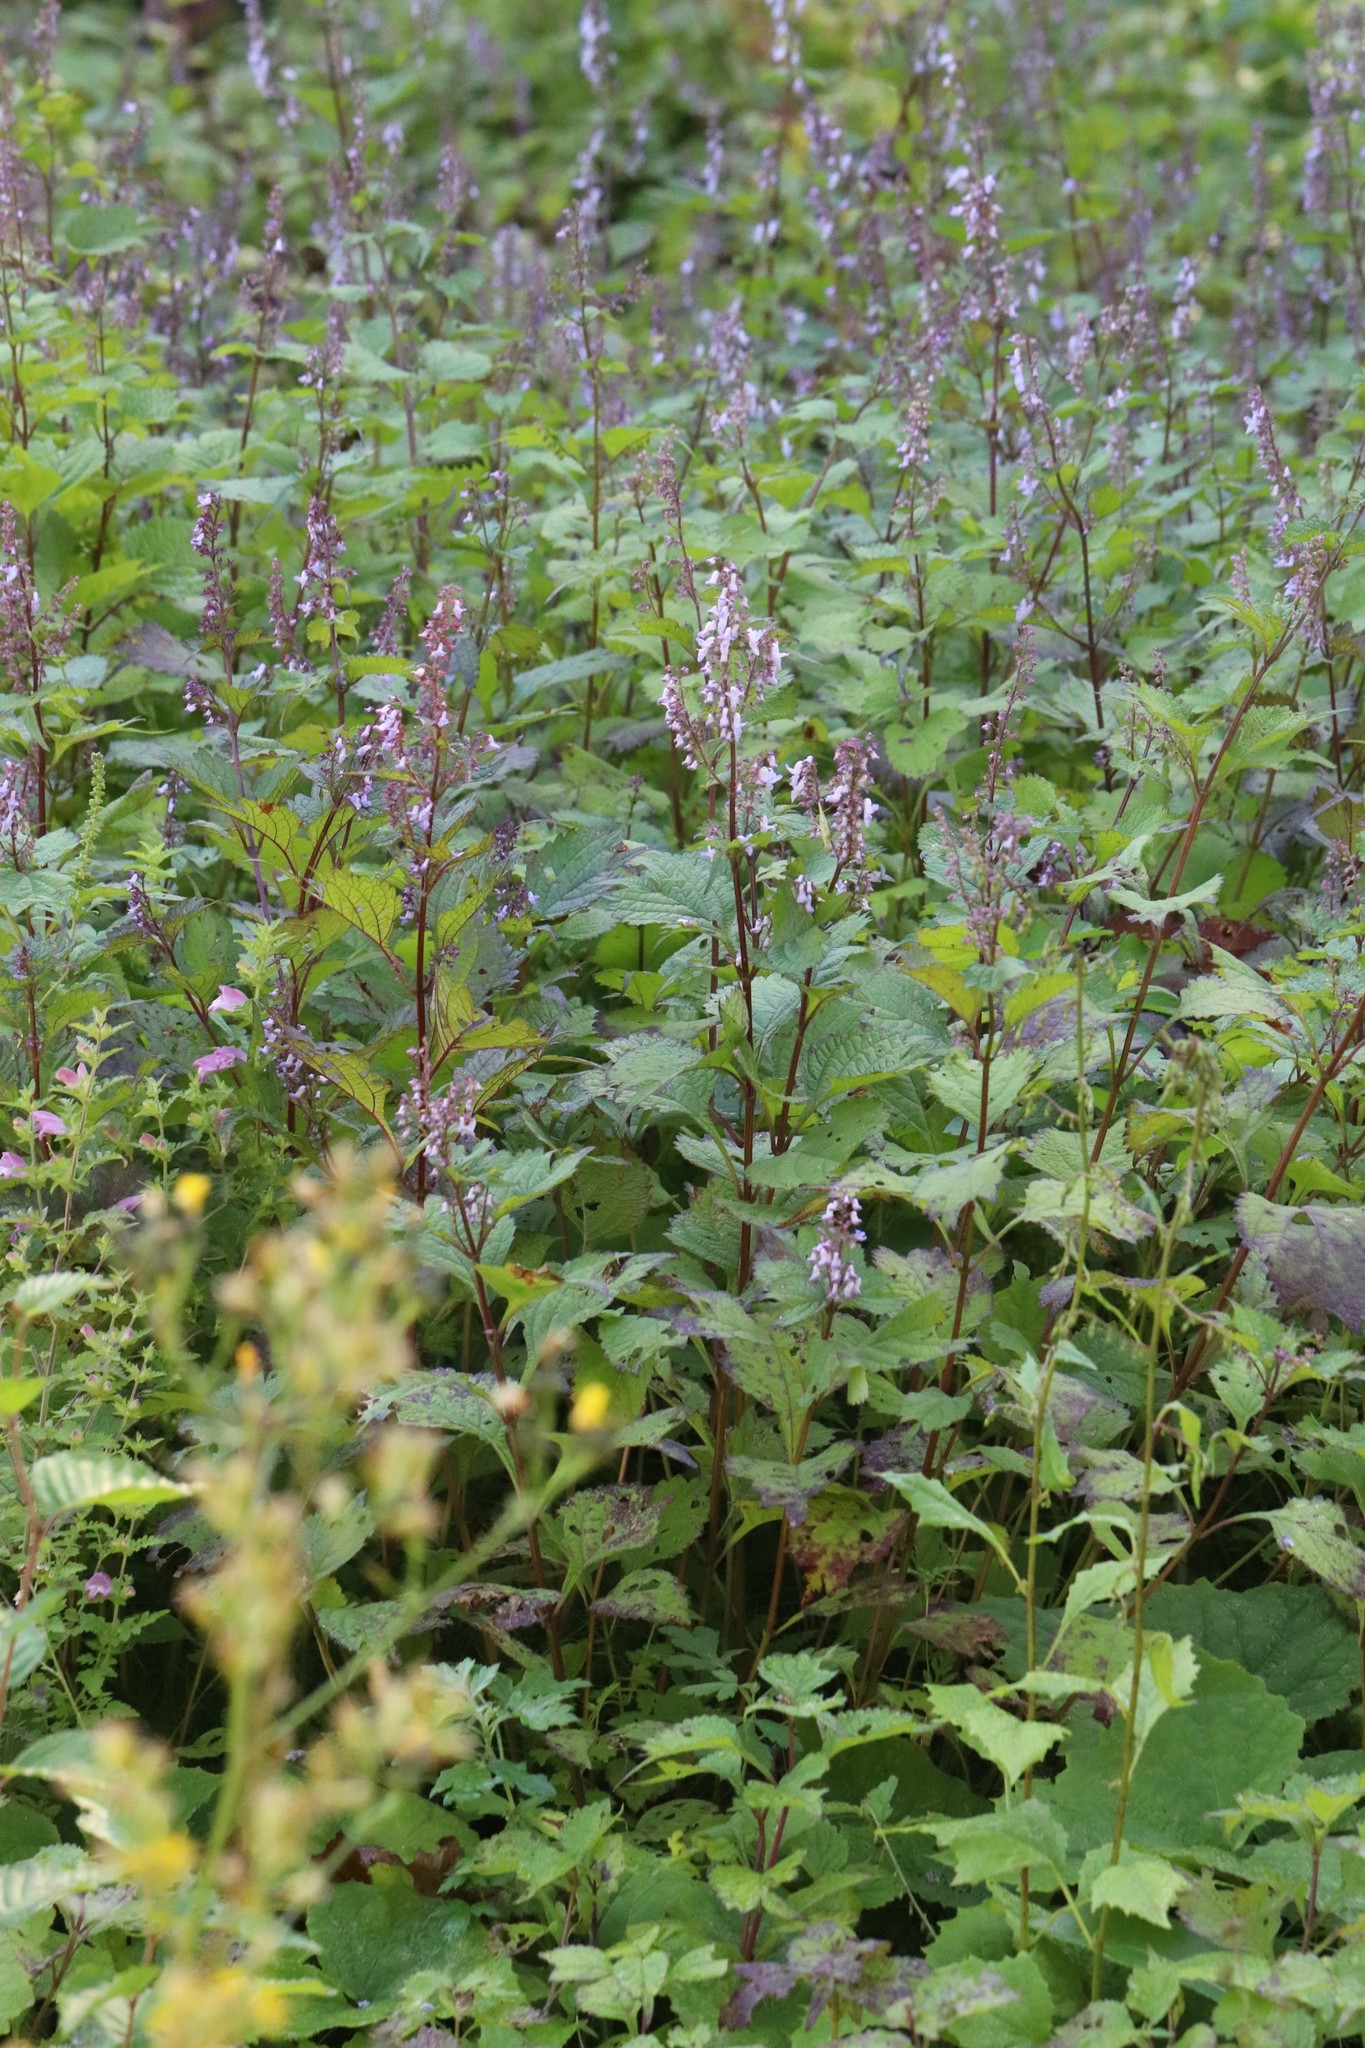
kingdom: Plantae
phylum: Tracheophyta
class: Magnoliopsida
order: Lamiales
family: Lamiaceae
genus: Isodon
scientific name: Isodon excisus
